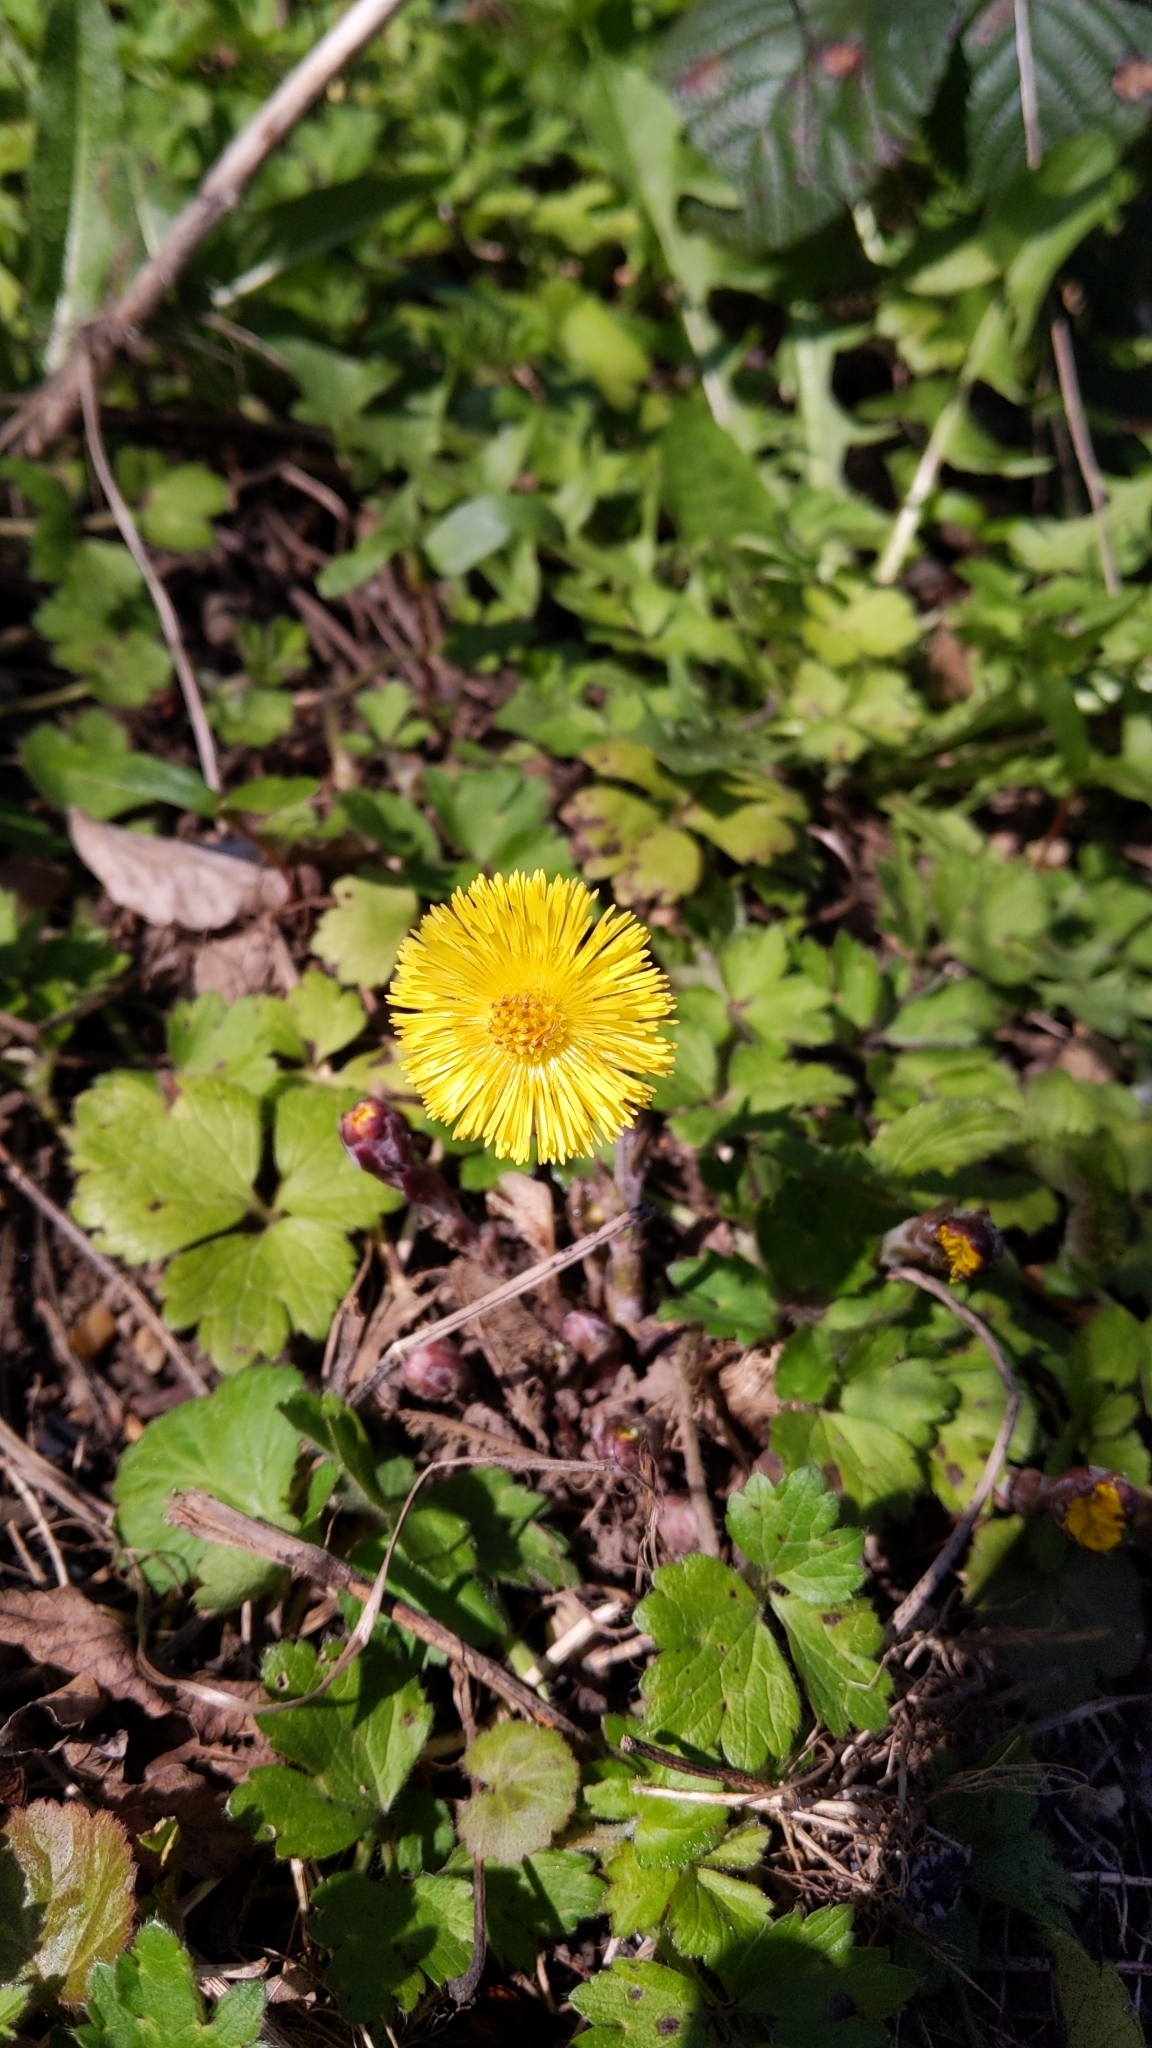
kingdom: Plantae
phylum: Tracheophyta
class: Magnoliopsida
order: Asterales
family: Asteraceae
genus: Tussilago
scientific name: Tussilago farfara
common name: Coltsfoot
